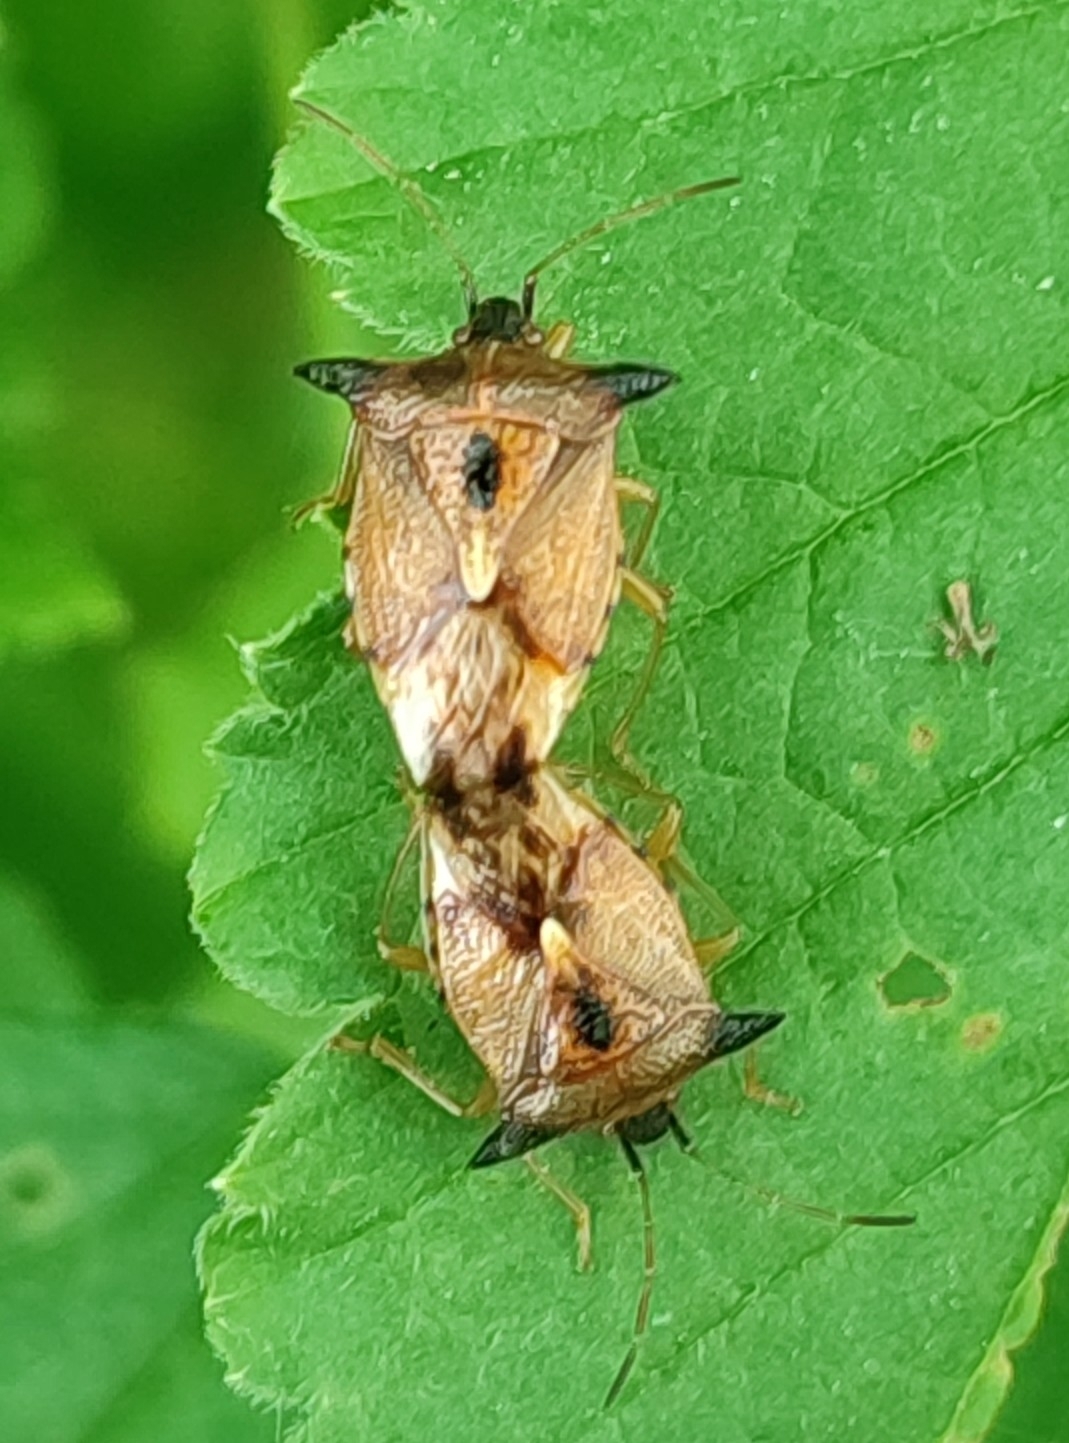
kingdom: Animalia
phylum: Arthropoda
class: Insecta
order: Hemiptera
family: Acanthosomatidae
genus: Elasmucha
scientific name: Elasmucha ferrugata
